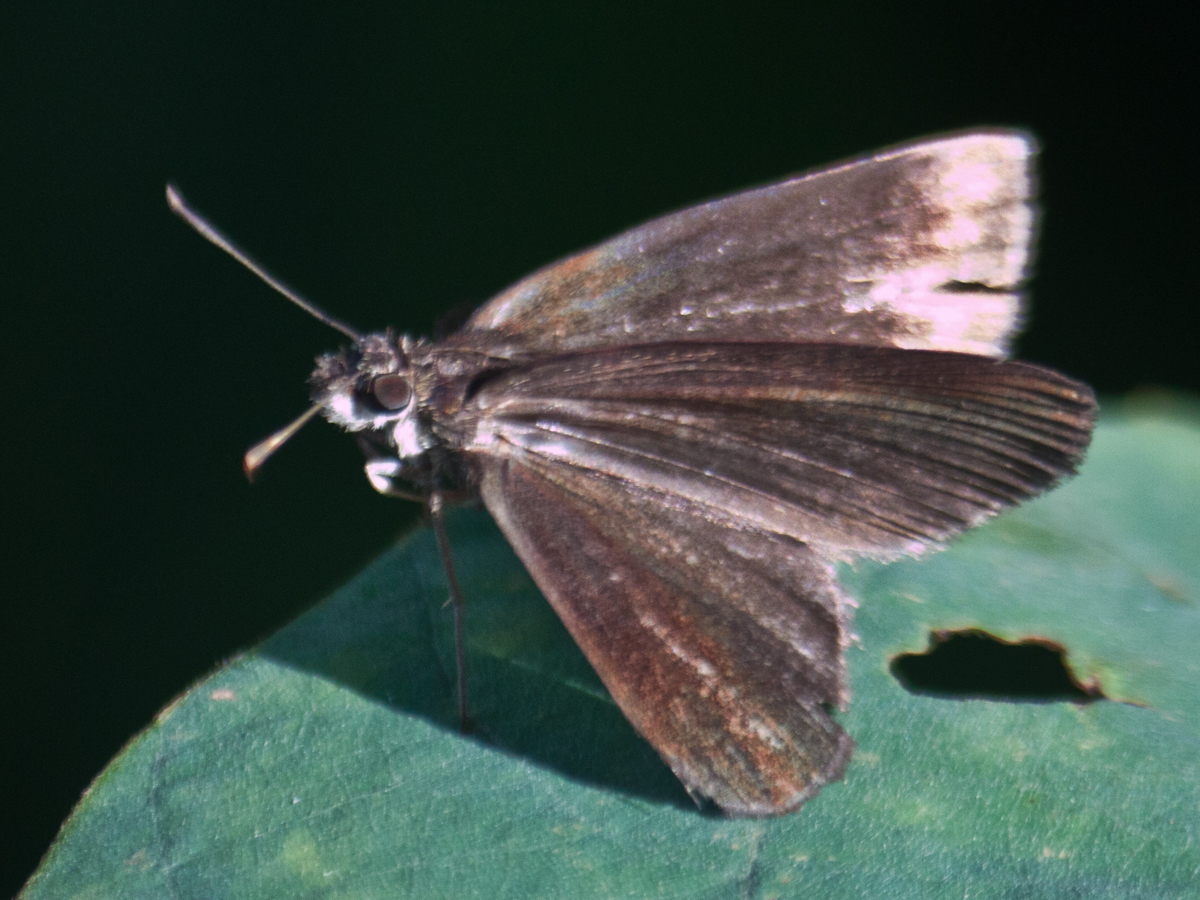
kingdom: Animalia
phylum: Arthropoda
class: Insecta
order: Lepidoptera
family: Hesperiidae
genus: Astictopterus
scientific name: Astictopterus jama
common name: Forest hopper
